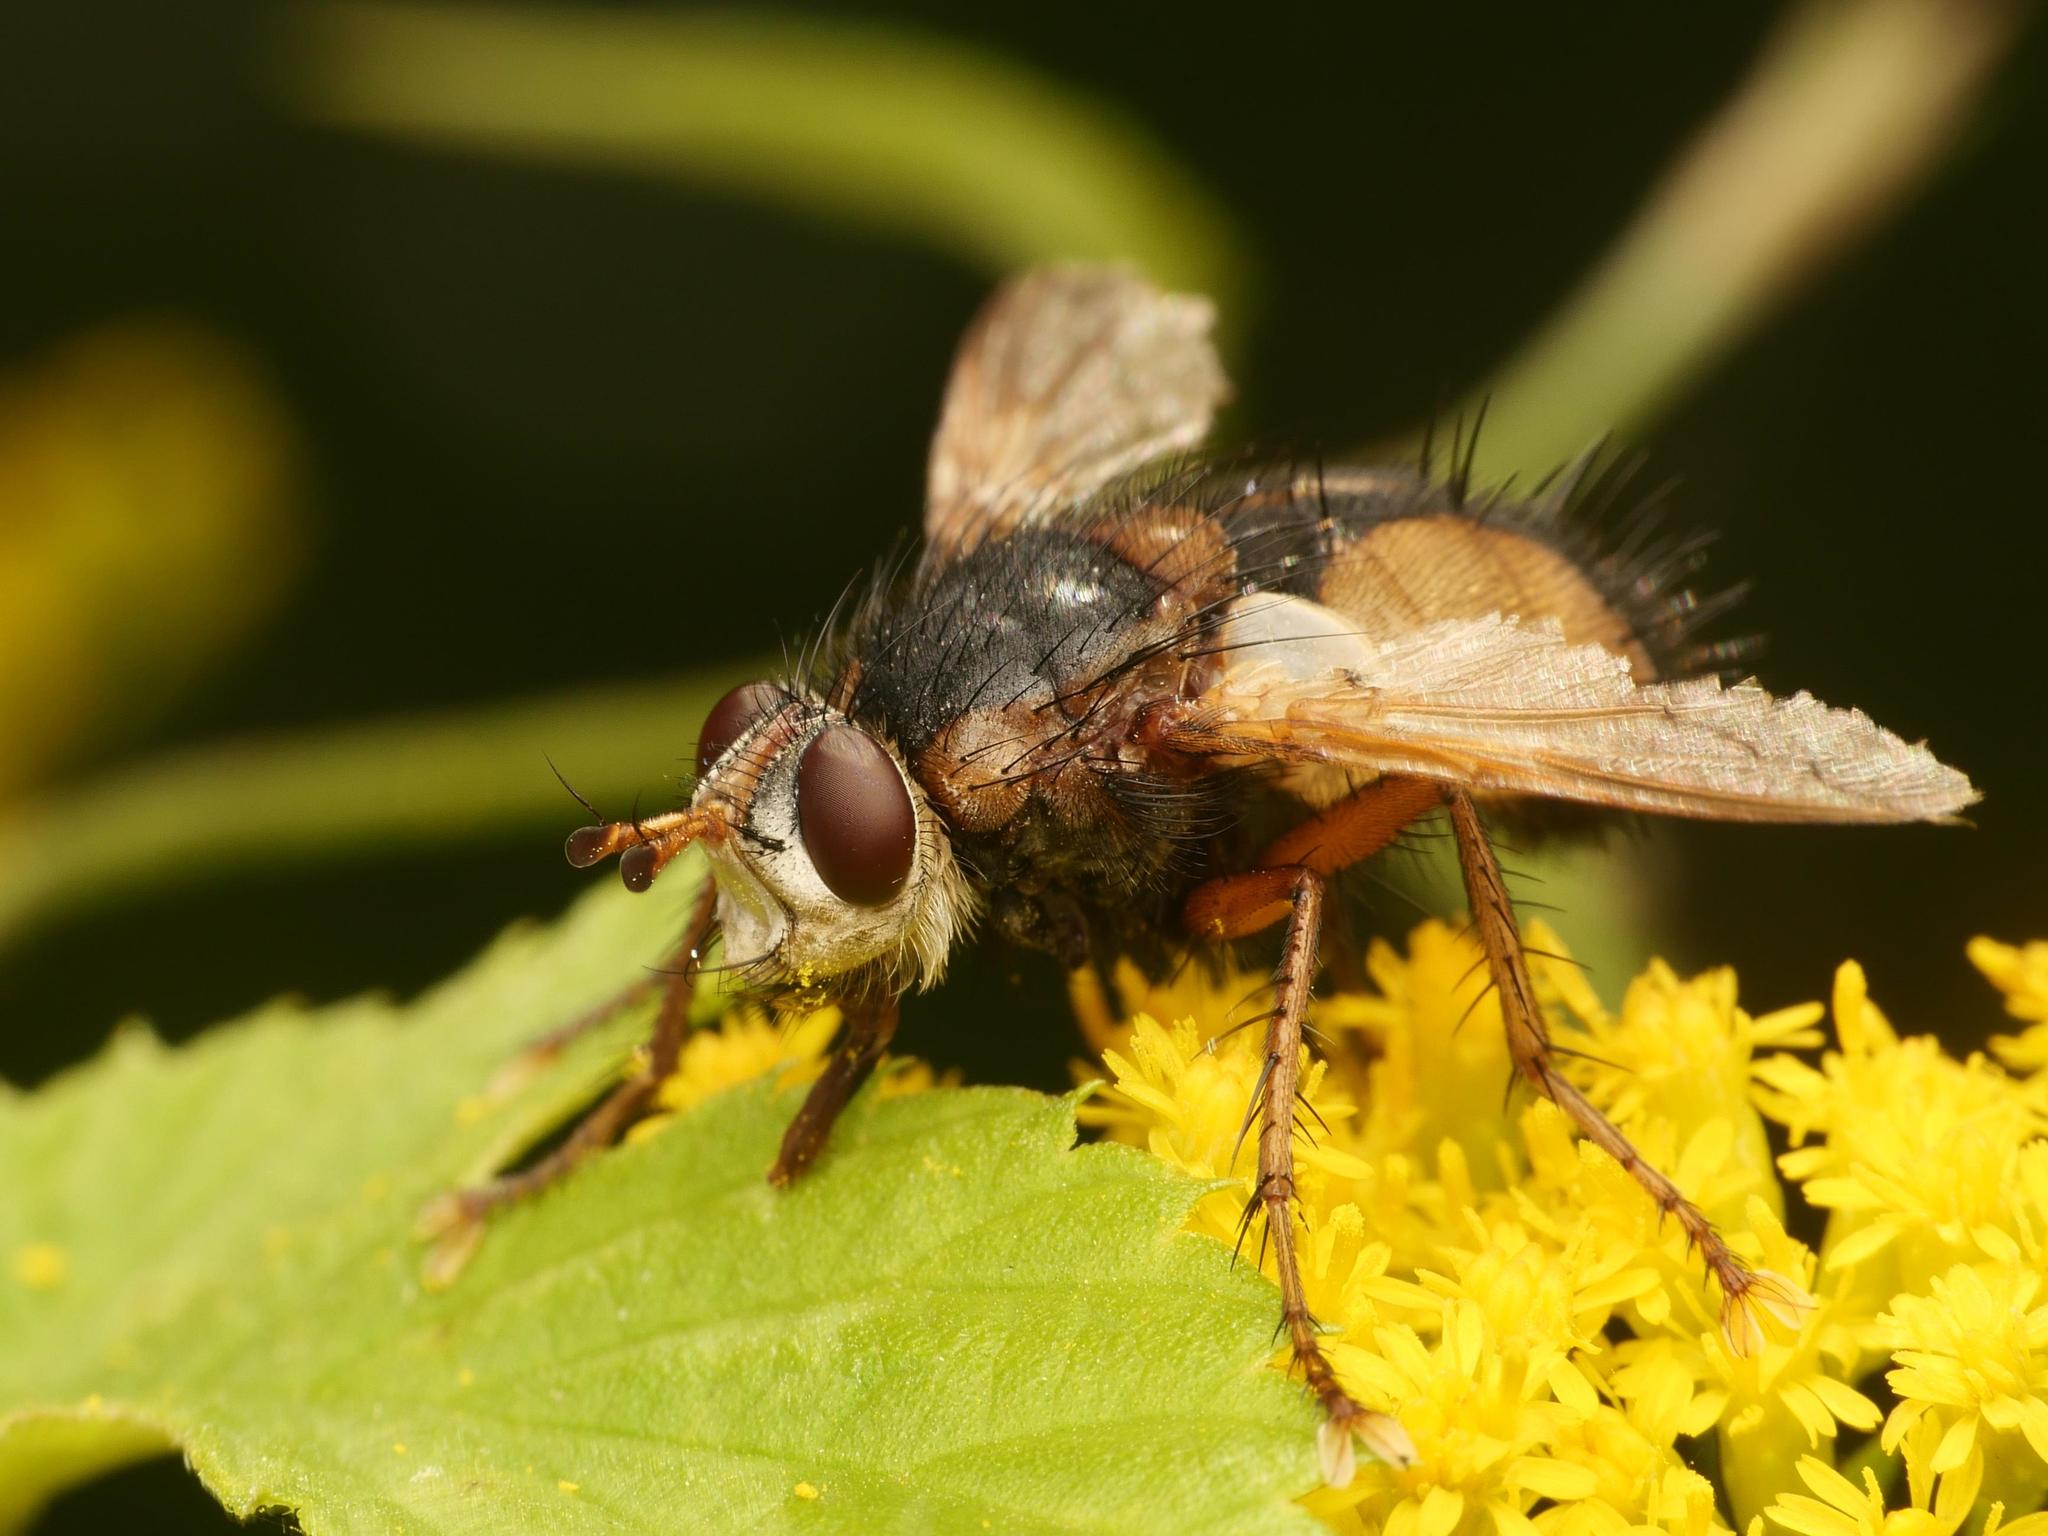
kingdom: Animalia
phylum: Arthropoda
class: Insecta
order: Diptera
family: Tachinidae
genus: Tachina
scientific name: Tachina fera
